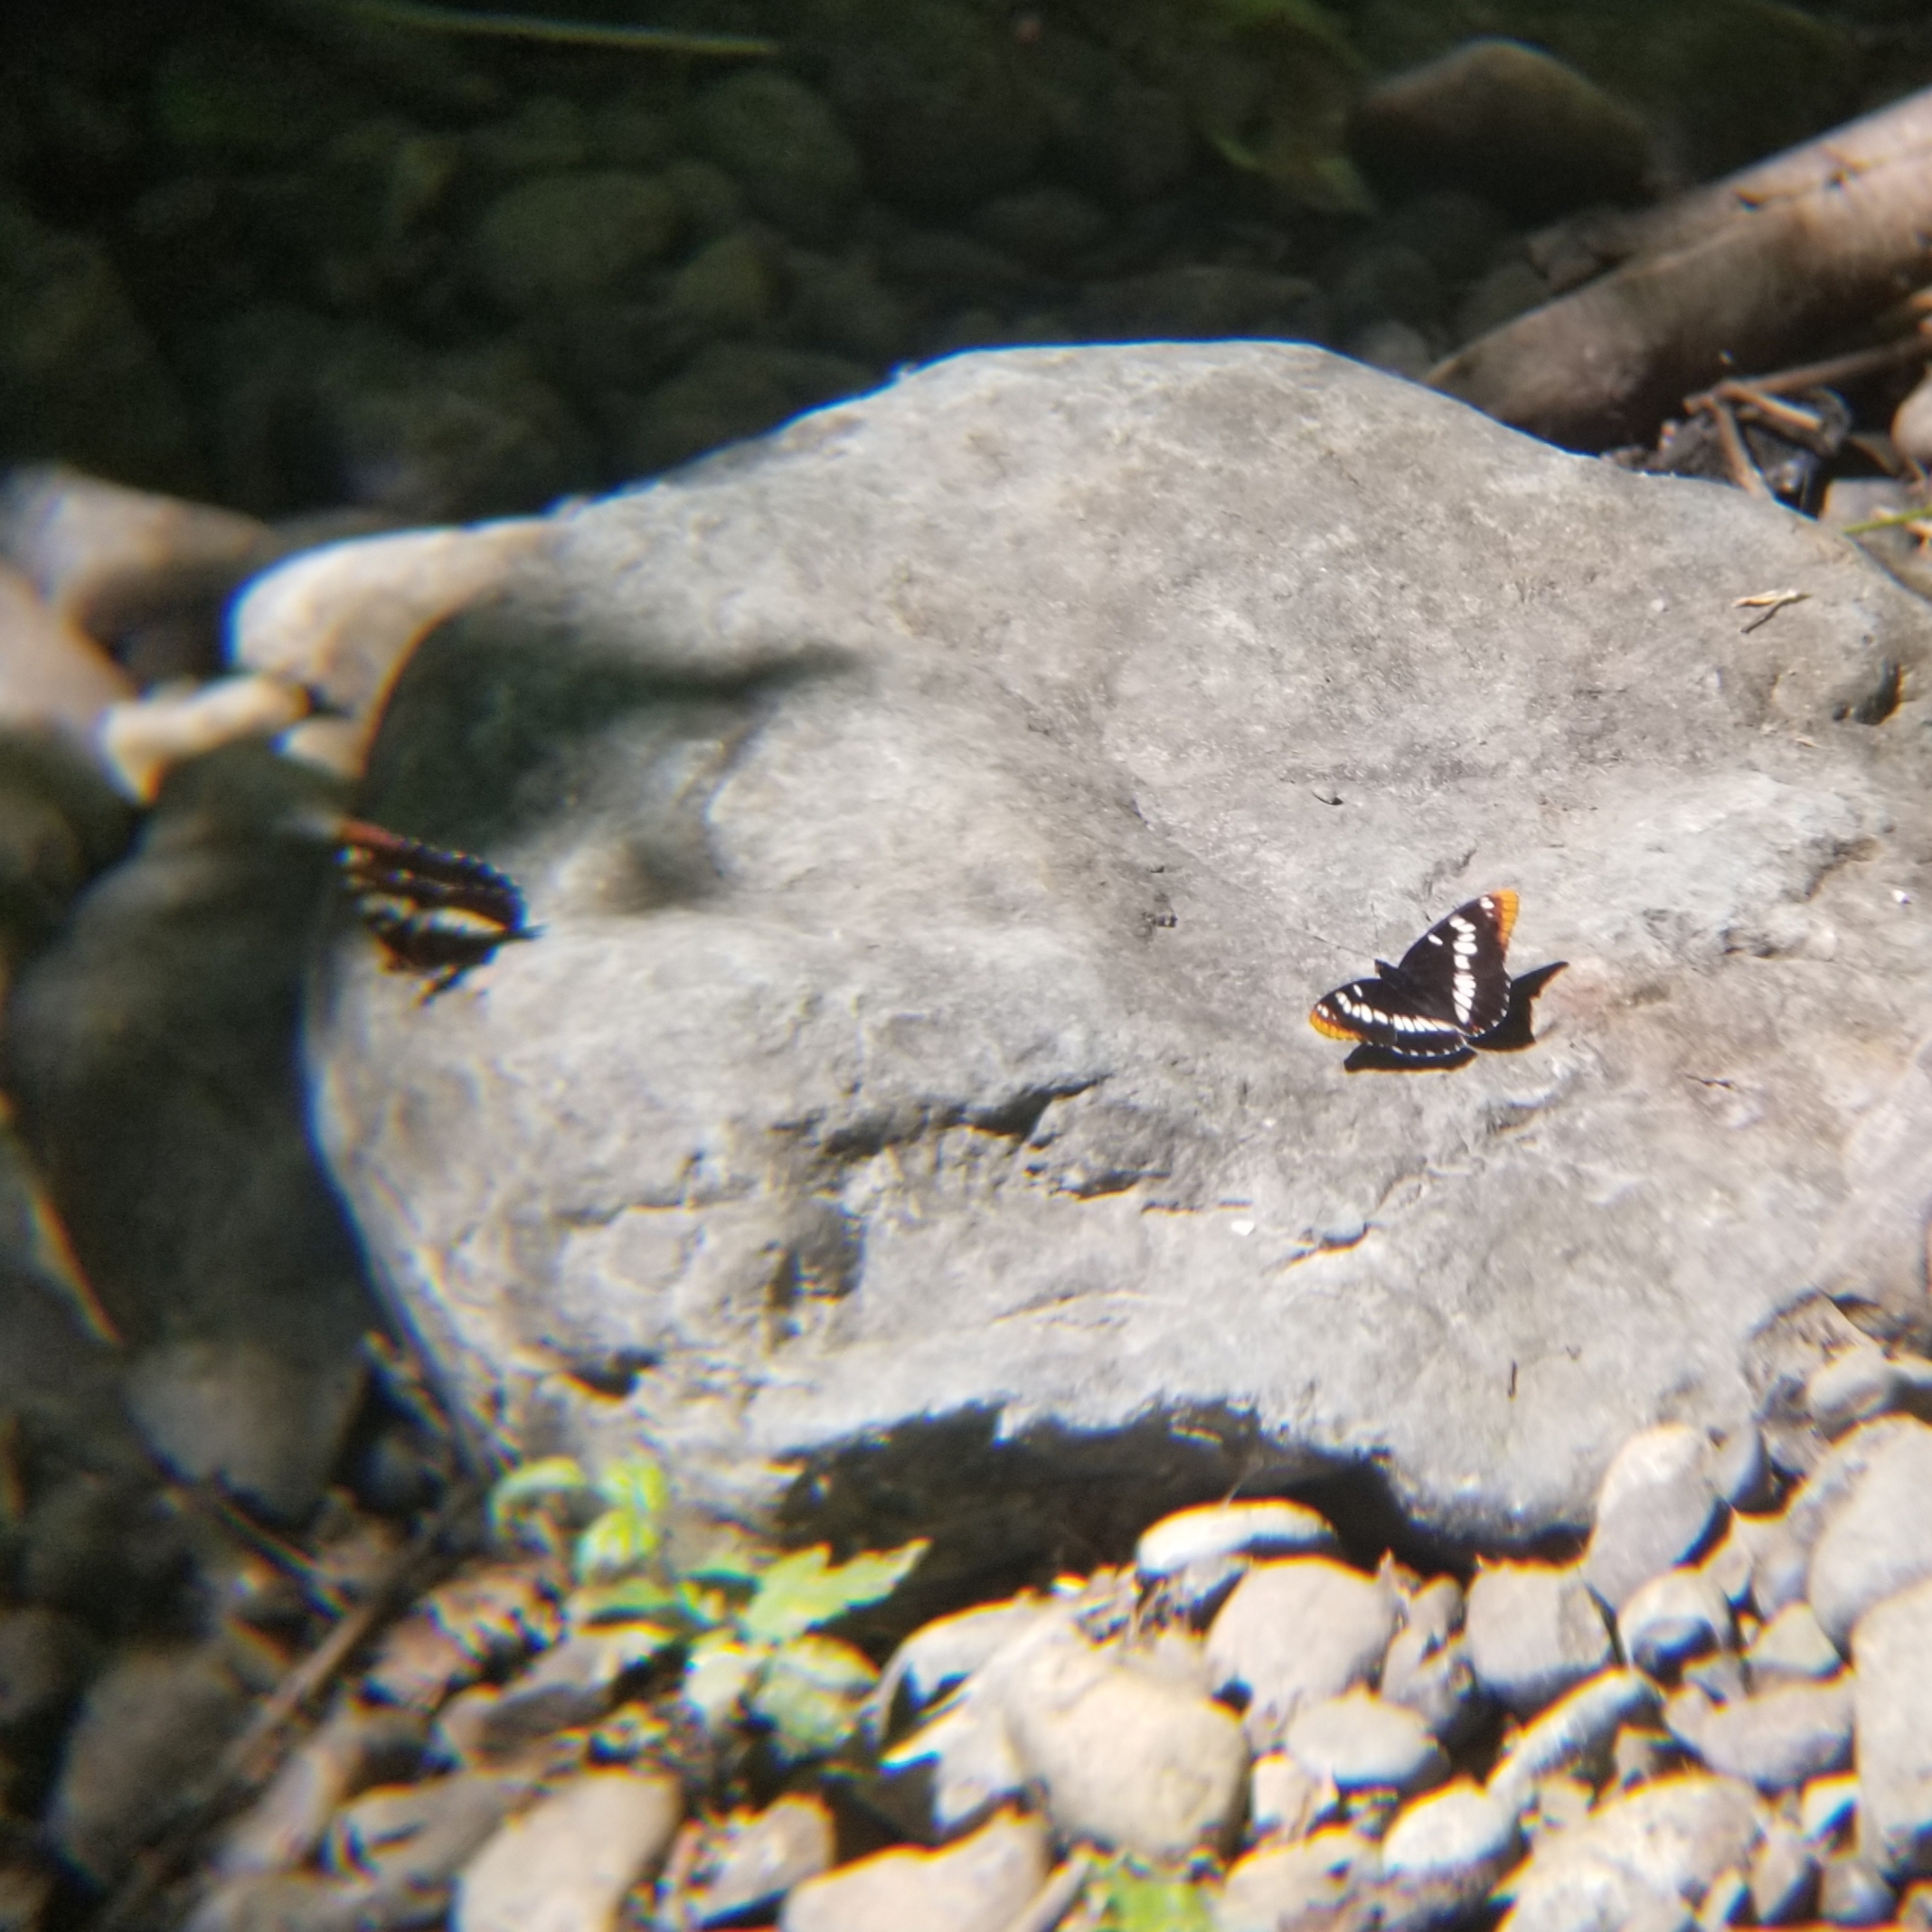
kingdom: Animalia
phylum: Arthropoda
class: Insecta
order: Lepidoptera
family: Nymphalidae
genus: Limenitis
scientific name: Limenitis lorquini
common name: Lorquin's admiral
